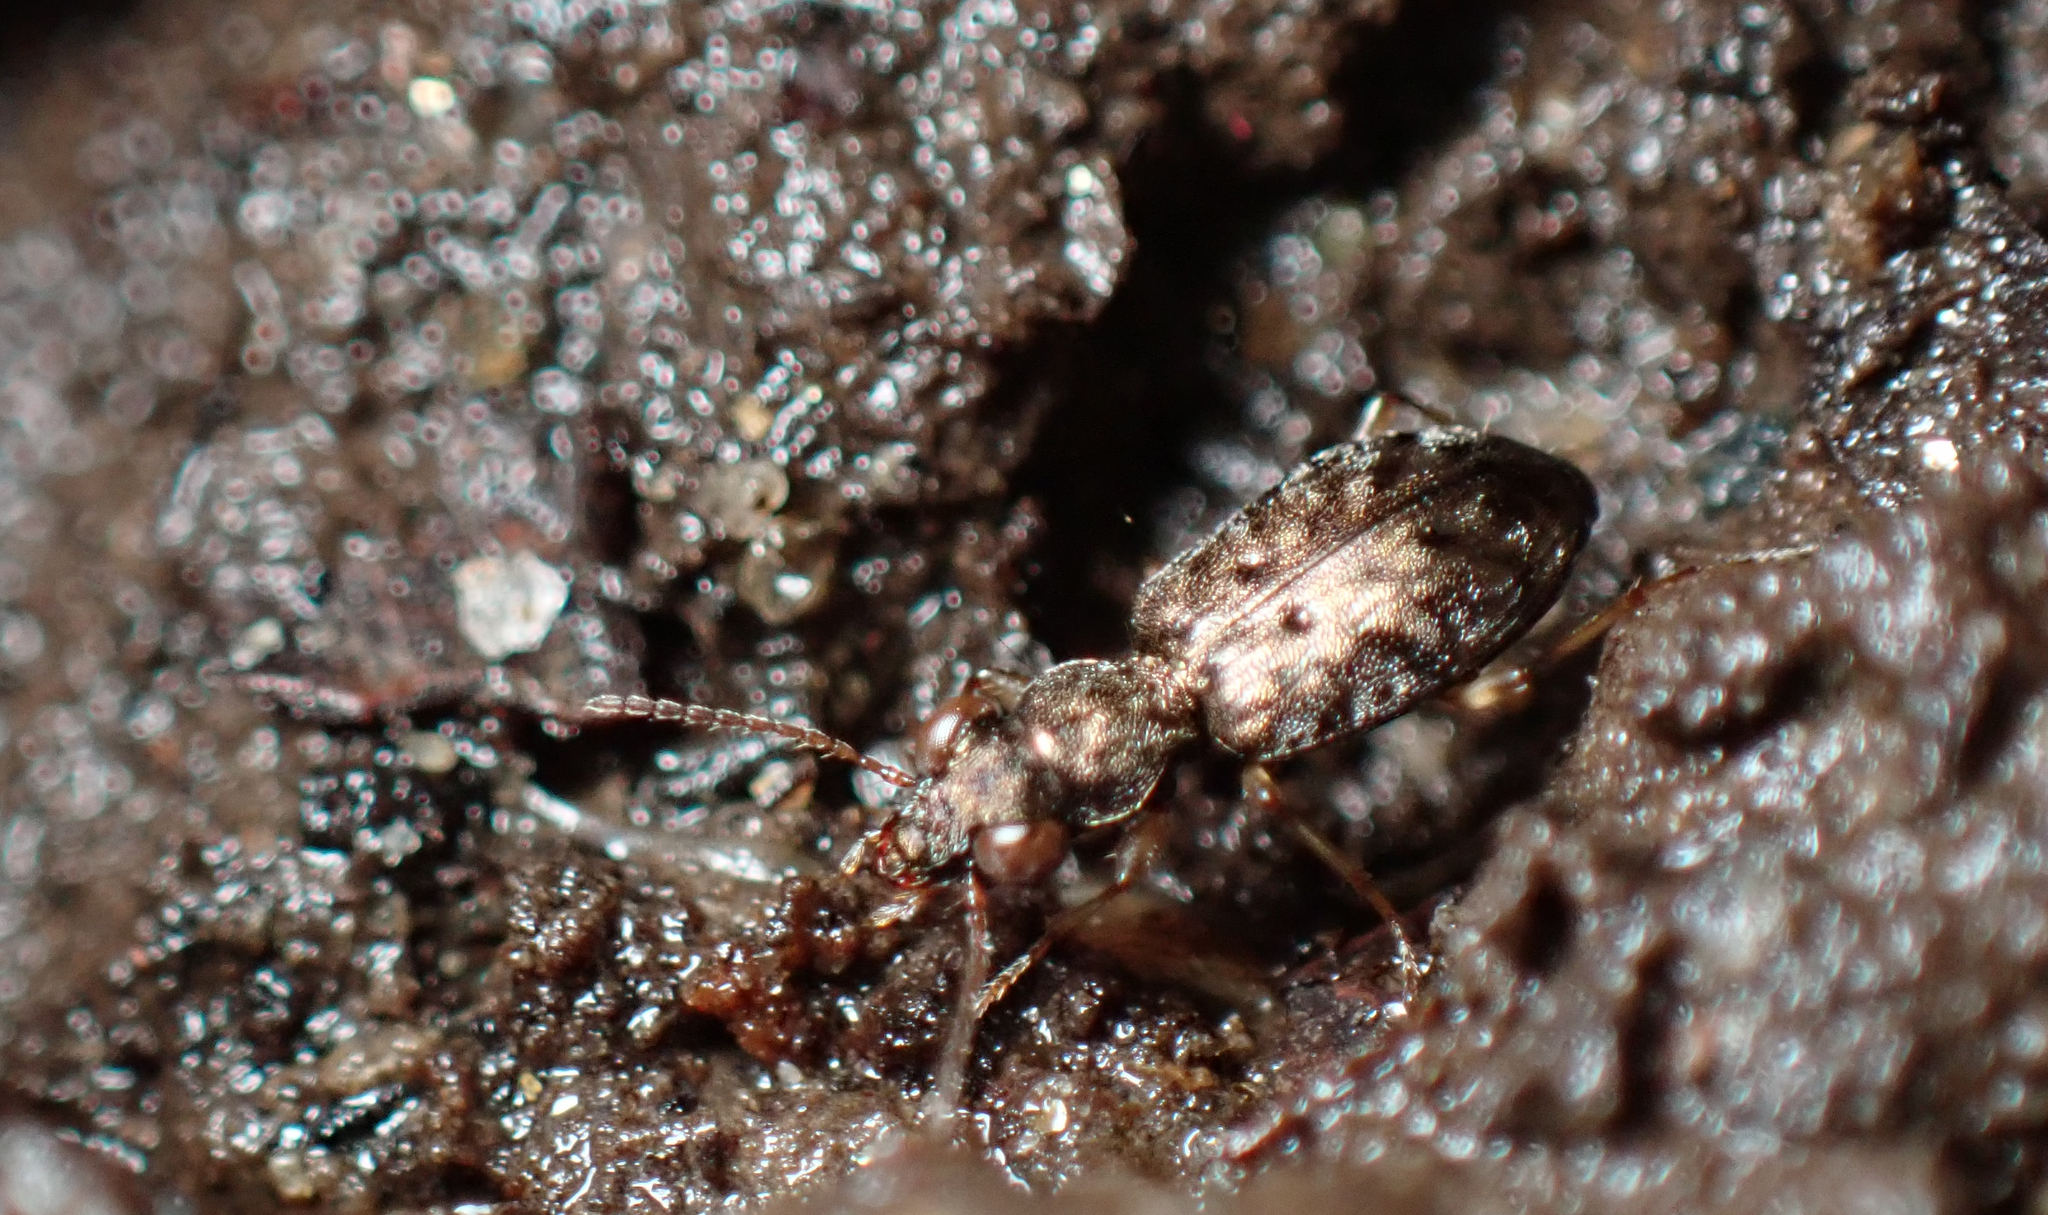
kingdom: Animalia
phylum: Arthropoda
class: Insecta
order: Coleoptera
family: Carabidae
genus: Asaphidion
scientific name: Asaphidion curtum
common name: Ground beetle
